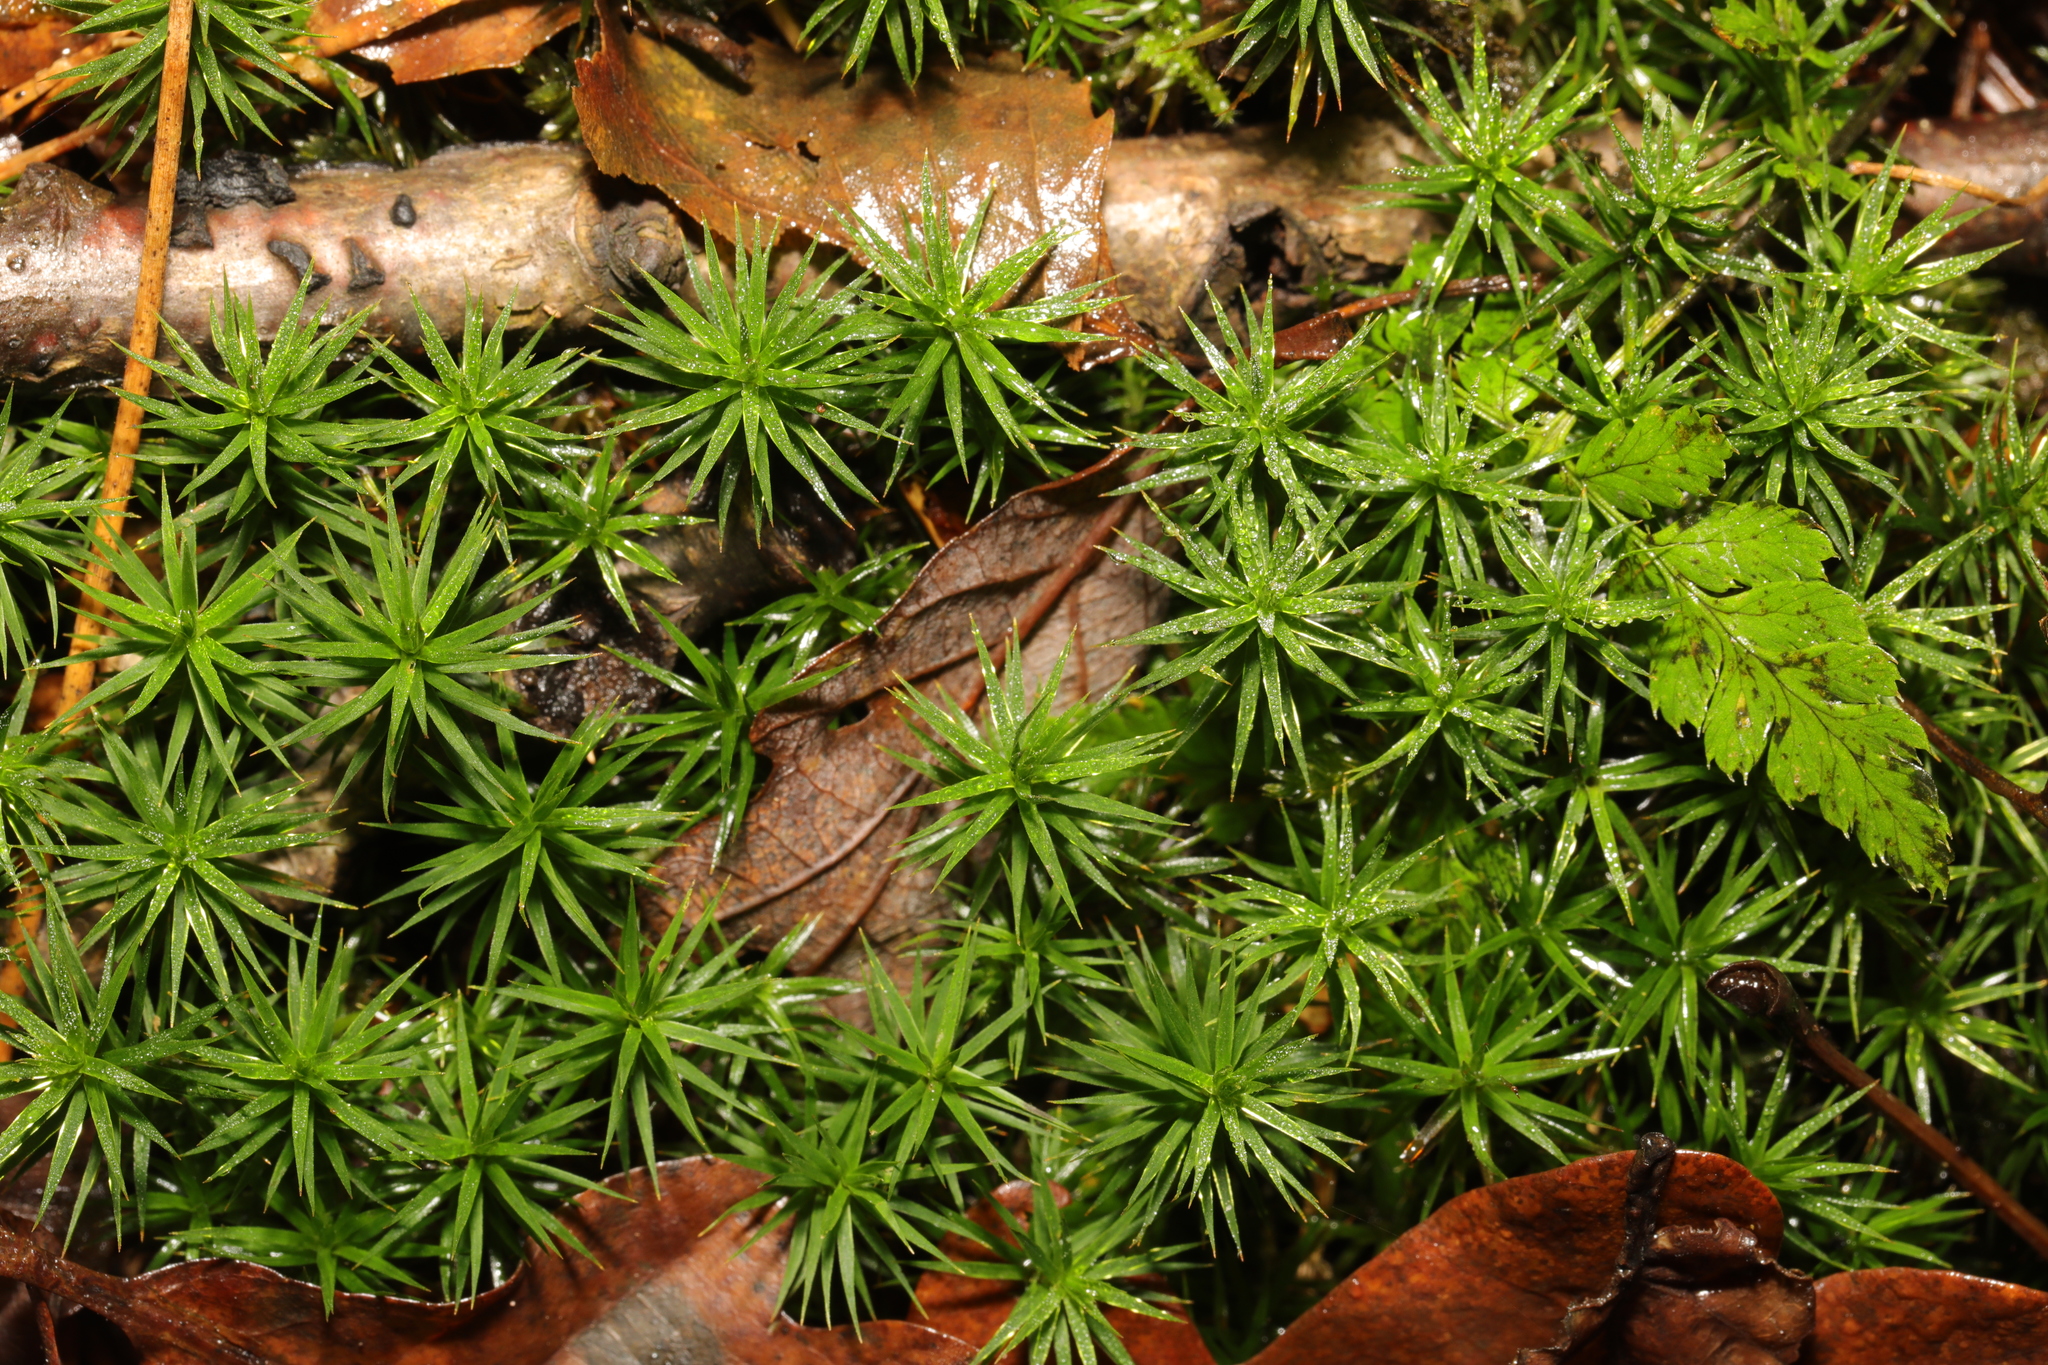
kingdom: Plantae
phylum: Bryophyta
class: Polytrichopsida
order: Polytrichales
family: Polytrichaceae
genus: Polytrichum
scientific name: Polytrichum formosum
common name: Bank haircap moss
